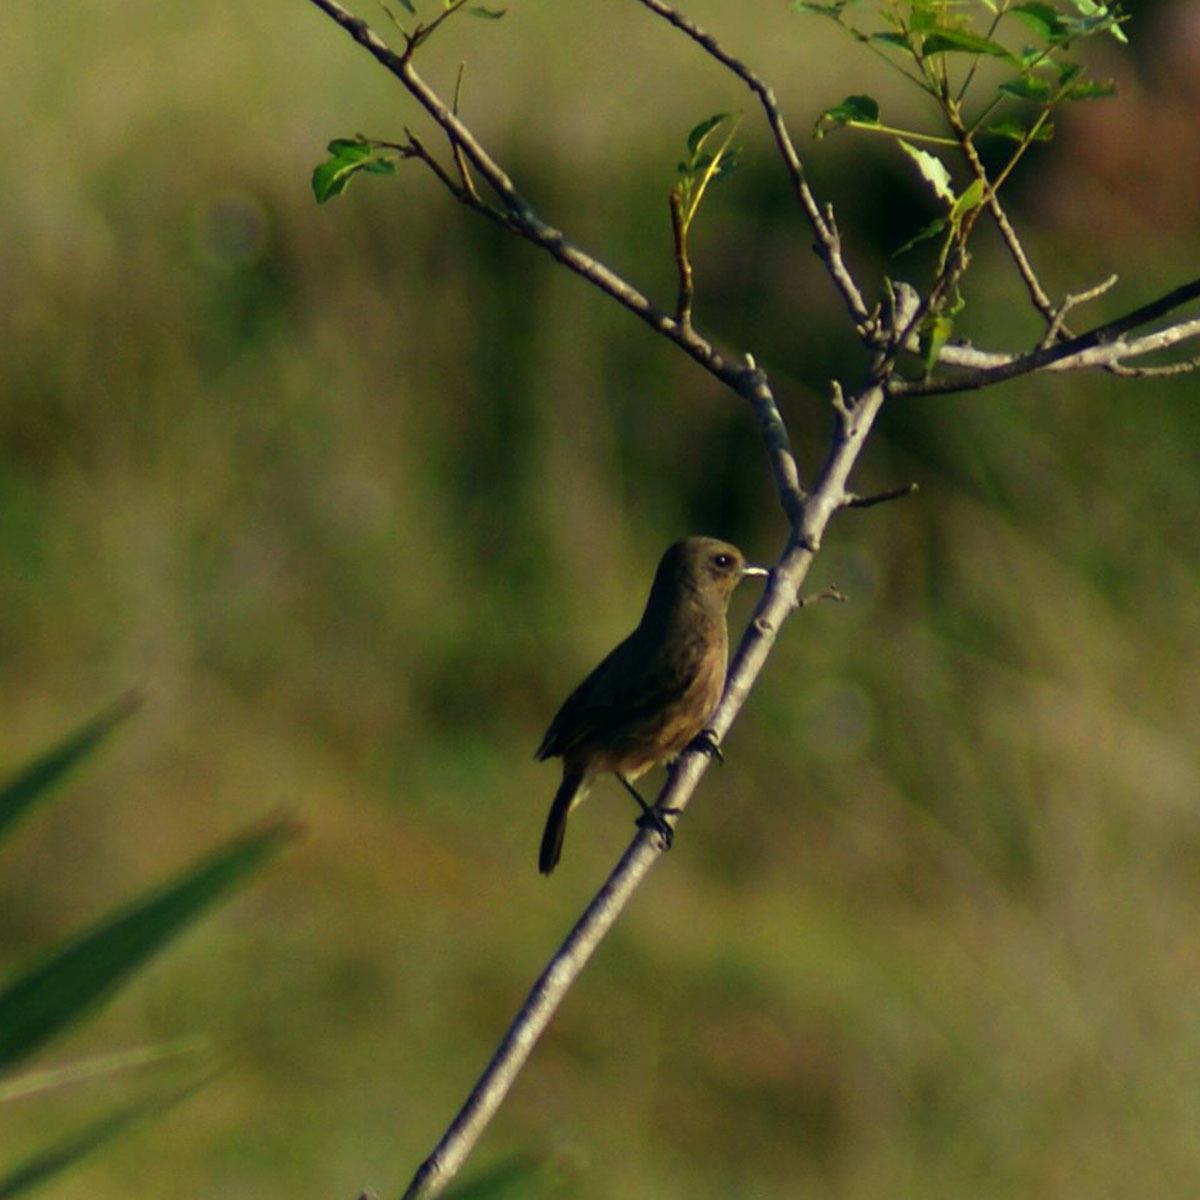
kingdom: Animalia
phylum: Chordata
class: Aves
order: Passeriformes
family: Muscicapidae
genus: Saxicola
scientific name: Saxicola caprata
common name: Pied bush chat
